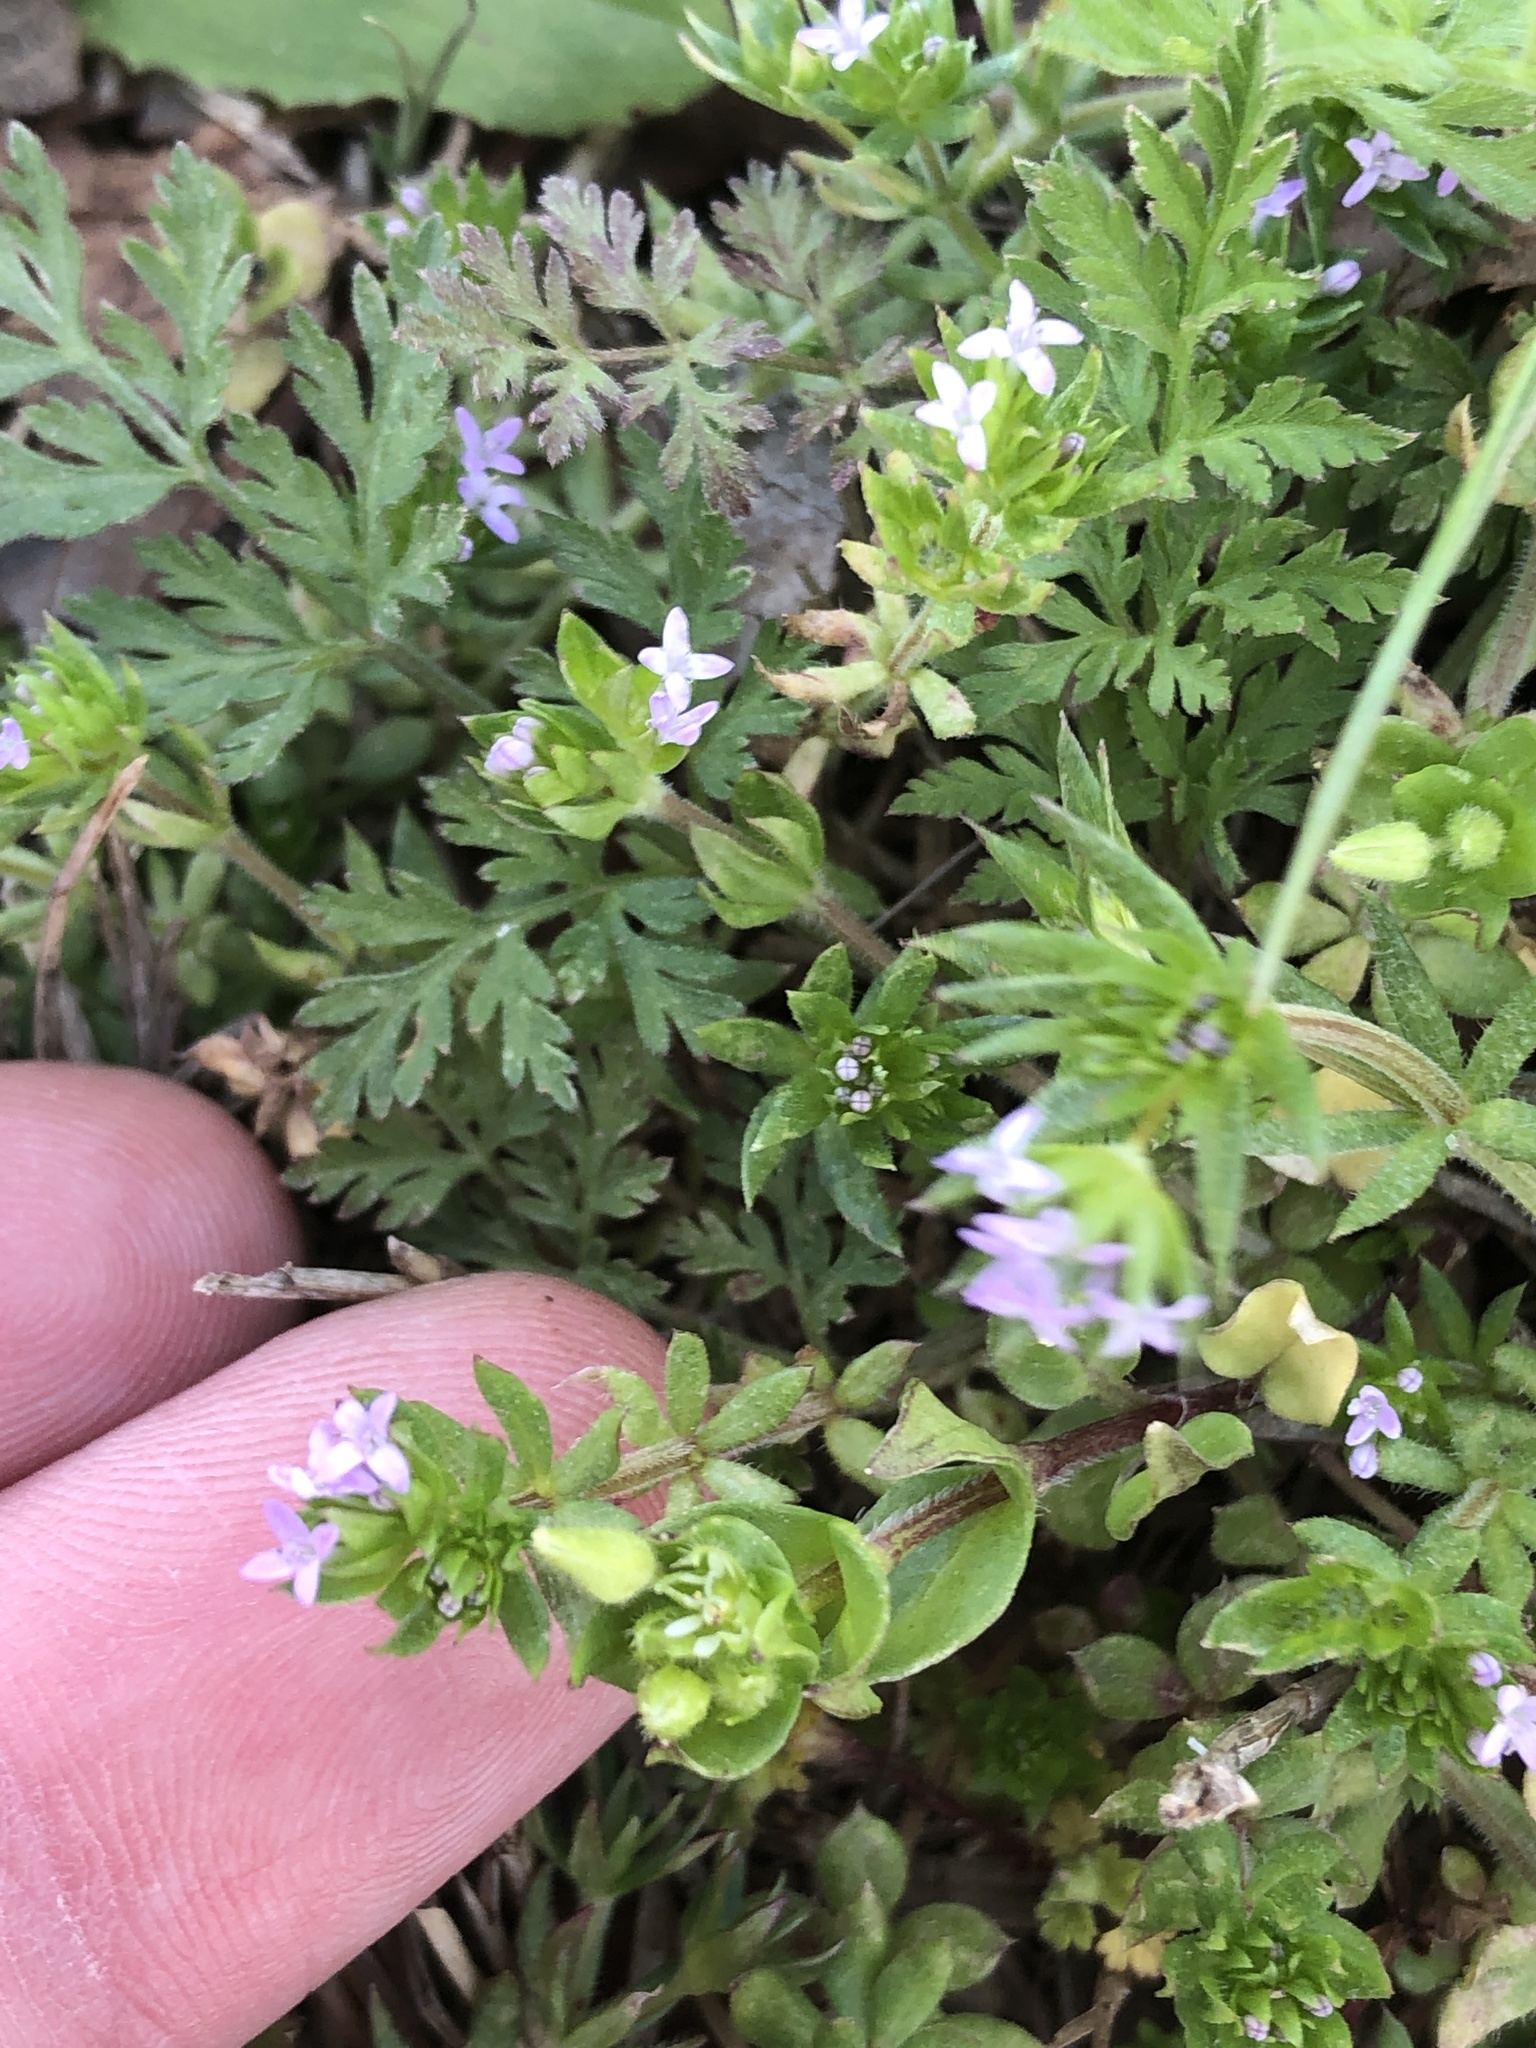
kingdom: Plantae
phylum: Tracheophyta
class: Magnoliopsida
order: Gentianales
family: Rubiaceae
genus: Sherardia
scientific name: Sherardia arvensis
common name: Field madder
